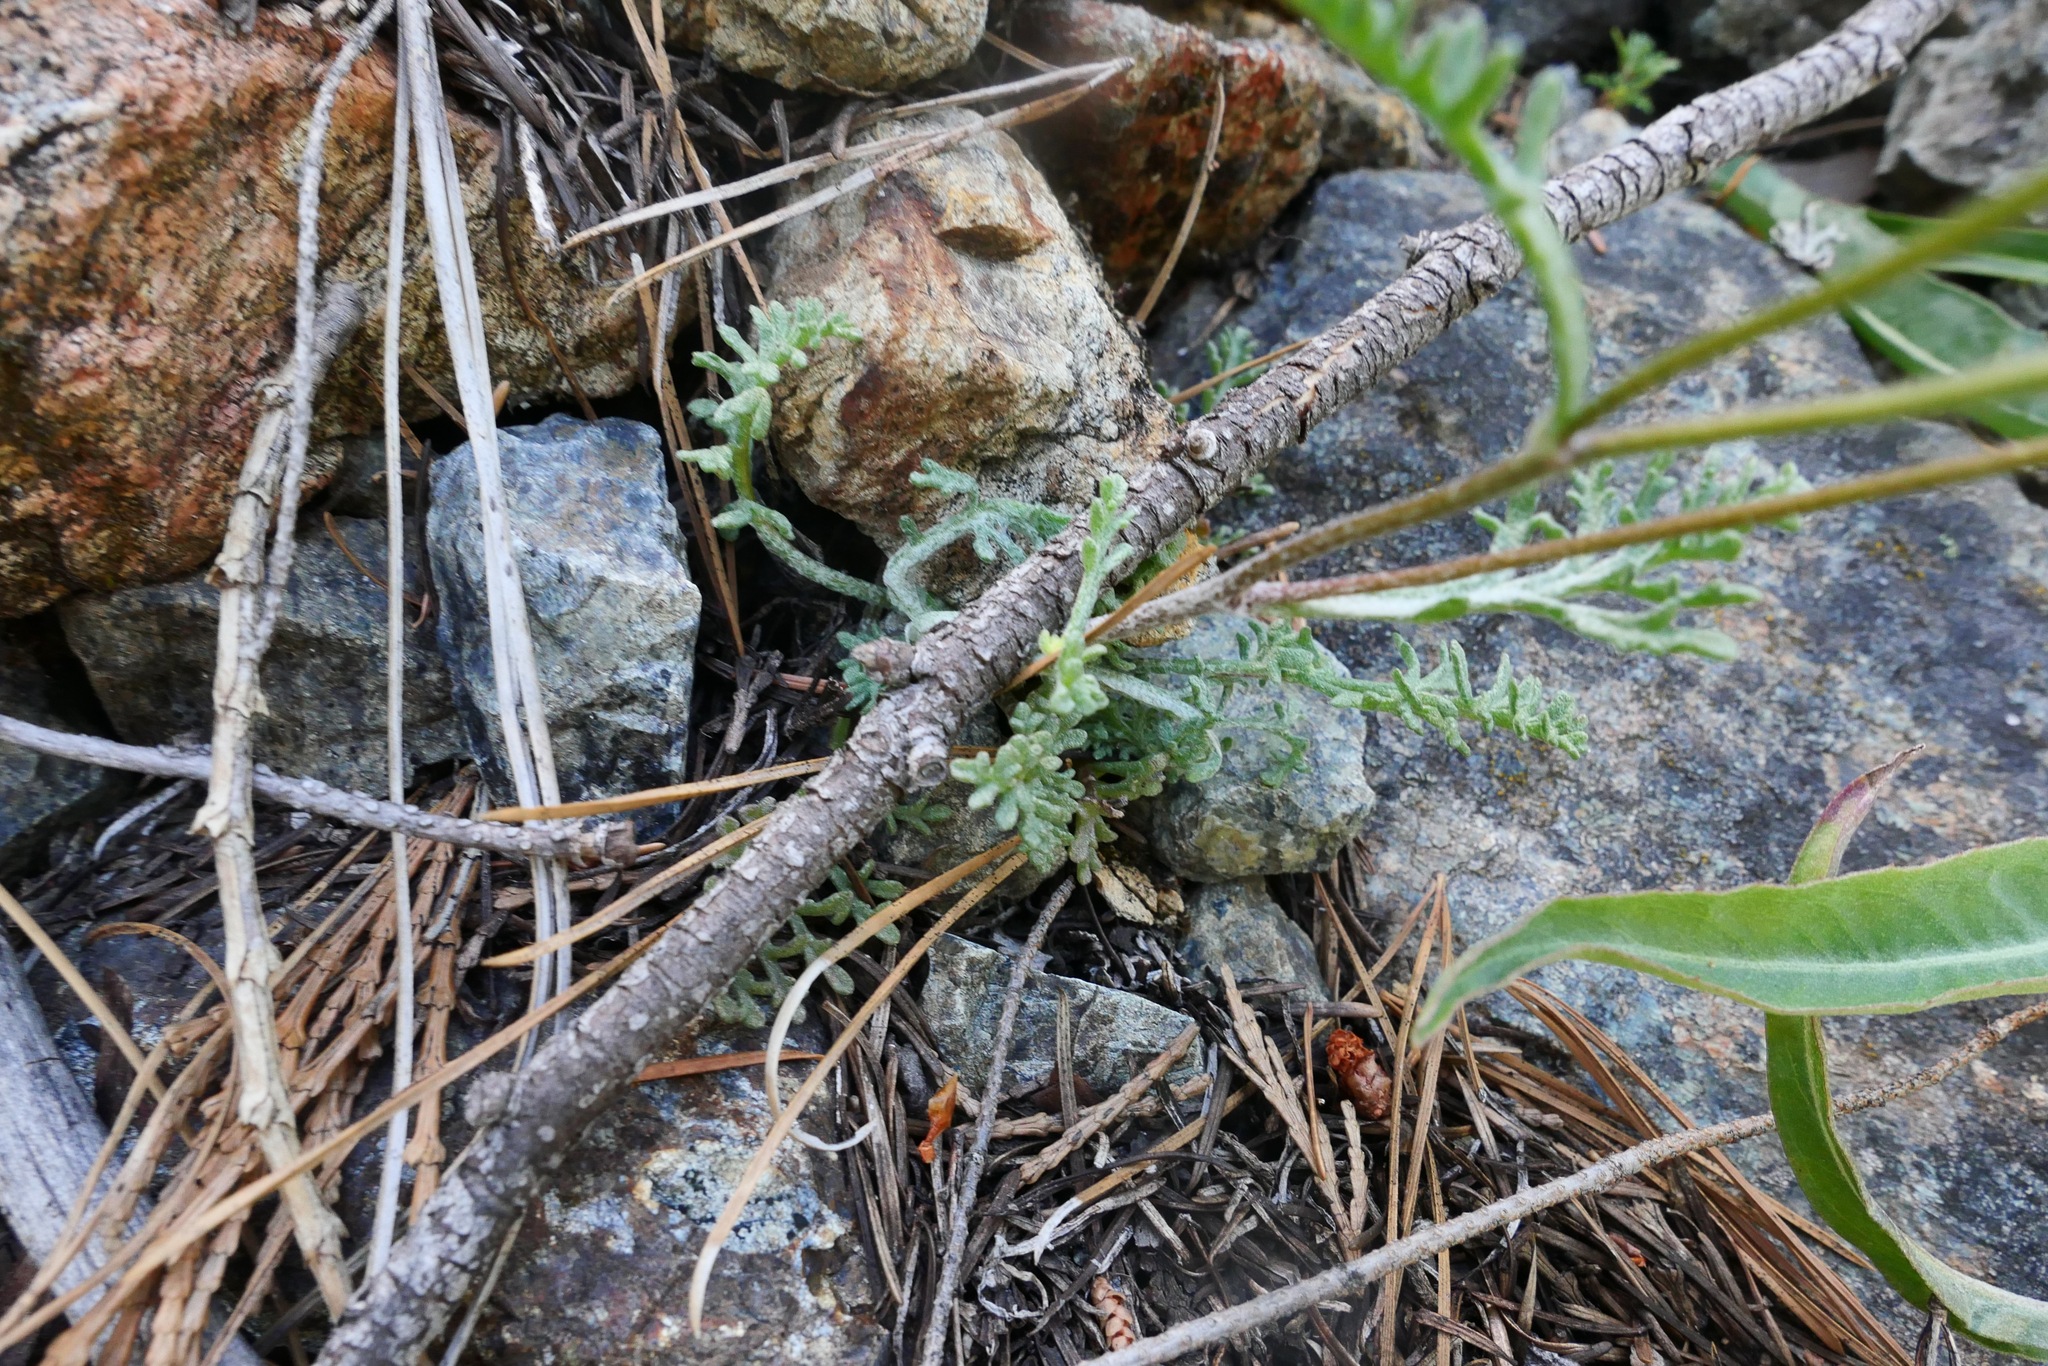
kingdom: Plantae
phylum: Tracheophyta
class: Magnoliopsida
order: Asterales
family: Asteraceae
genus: Chaenactis
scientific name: Chaenactis douglasii
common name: Hoary pincushion
